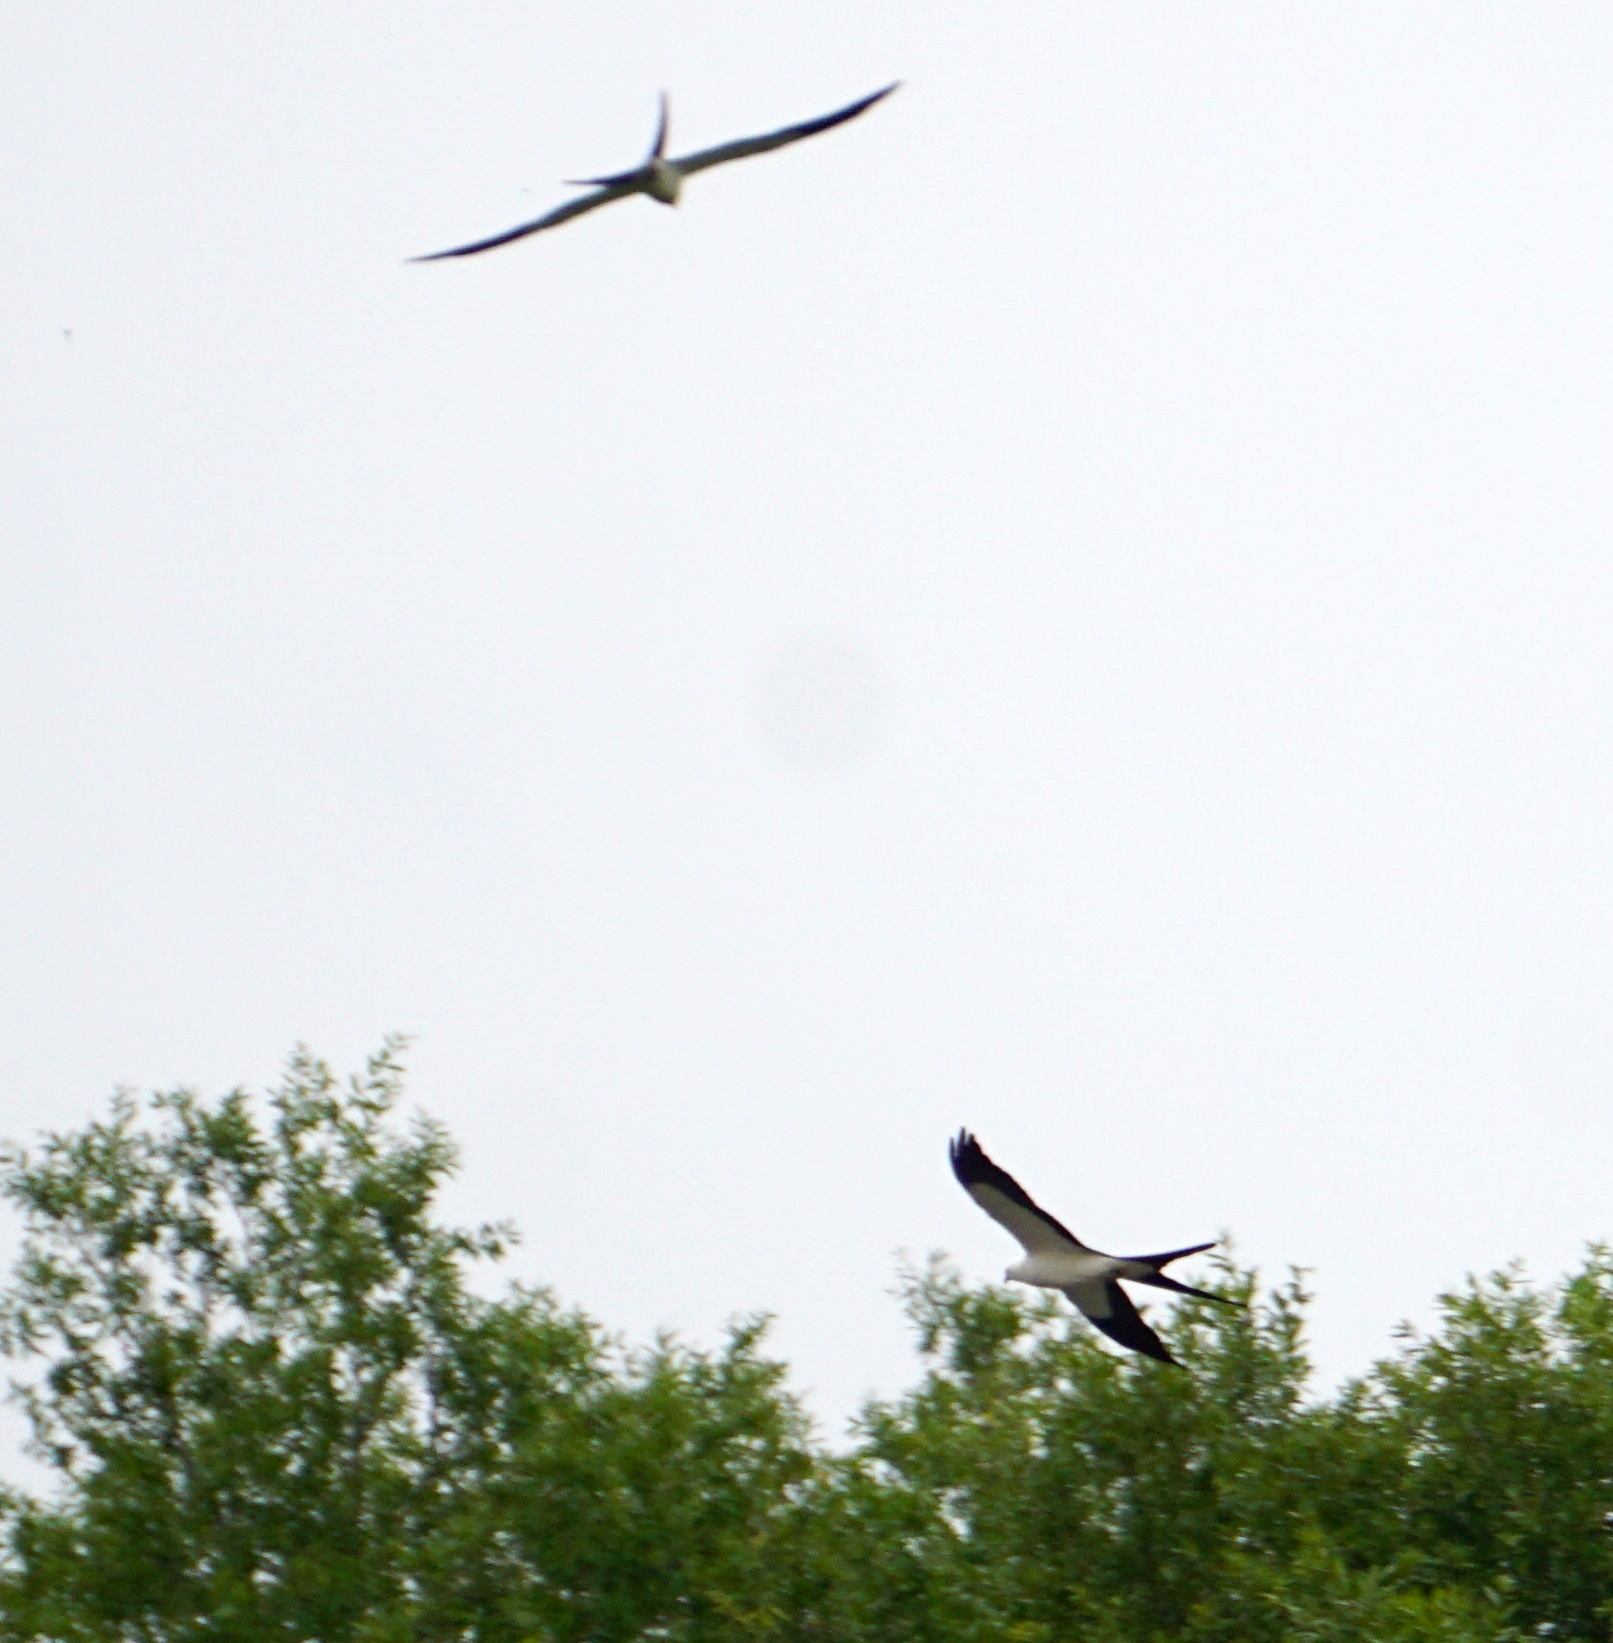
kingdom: Animalia
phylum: Chordata
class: Aves
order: Accipitriformes
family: Accipitridae
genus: Elanoides
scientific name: Elanoides forficatus
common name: Swallow-tailed kite
